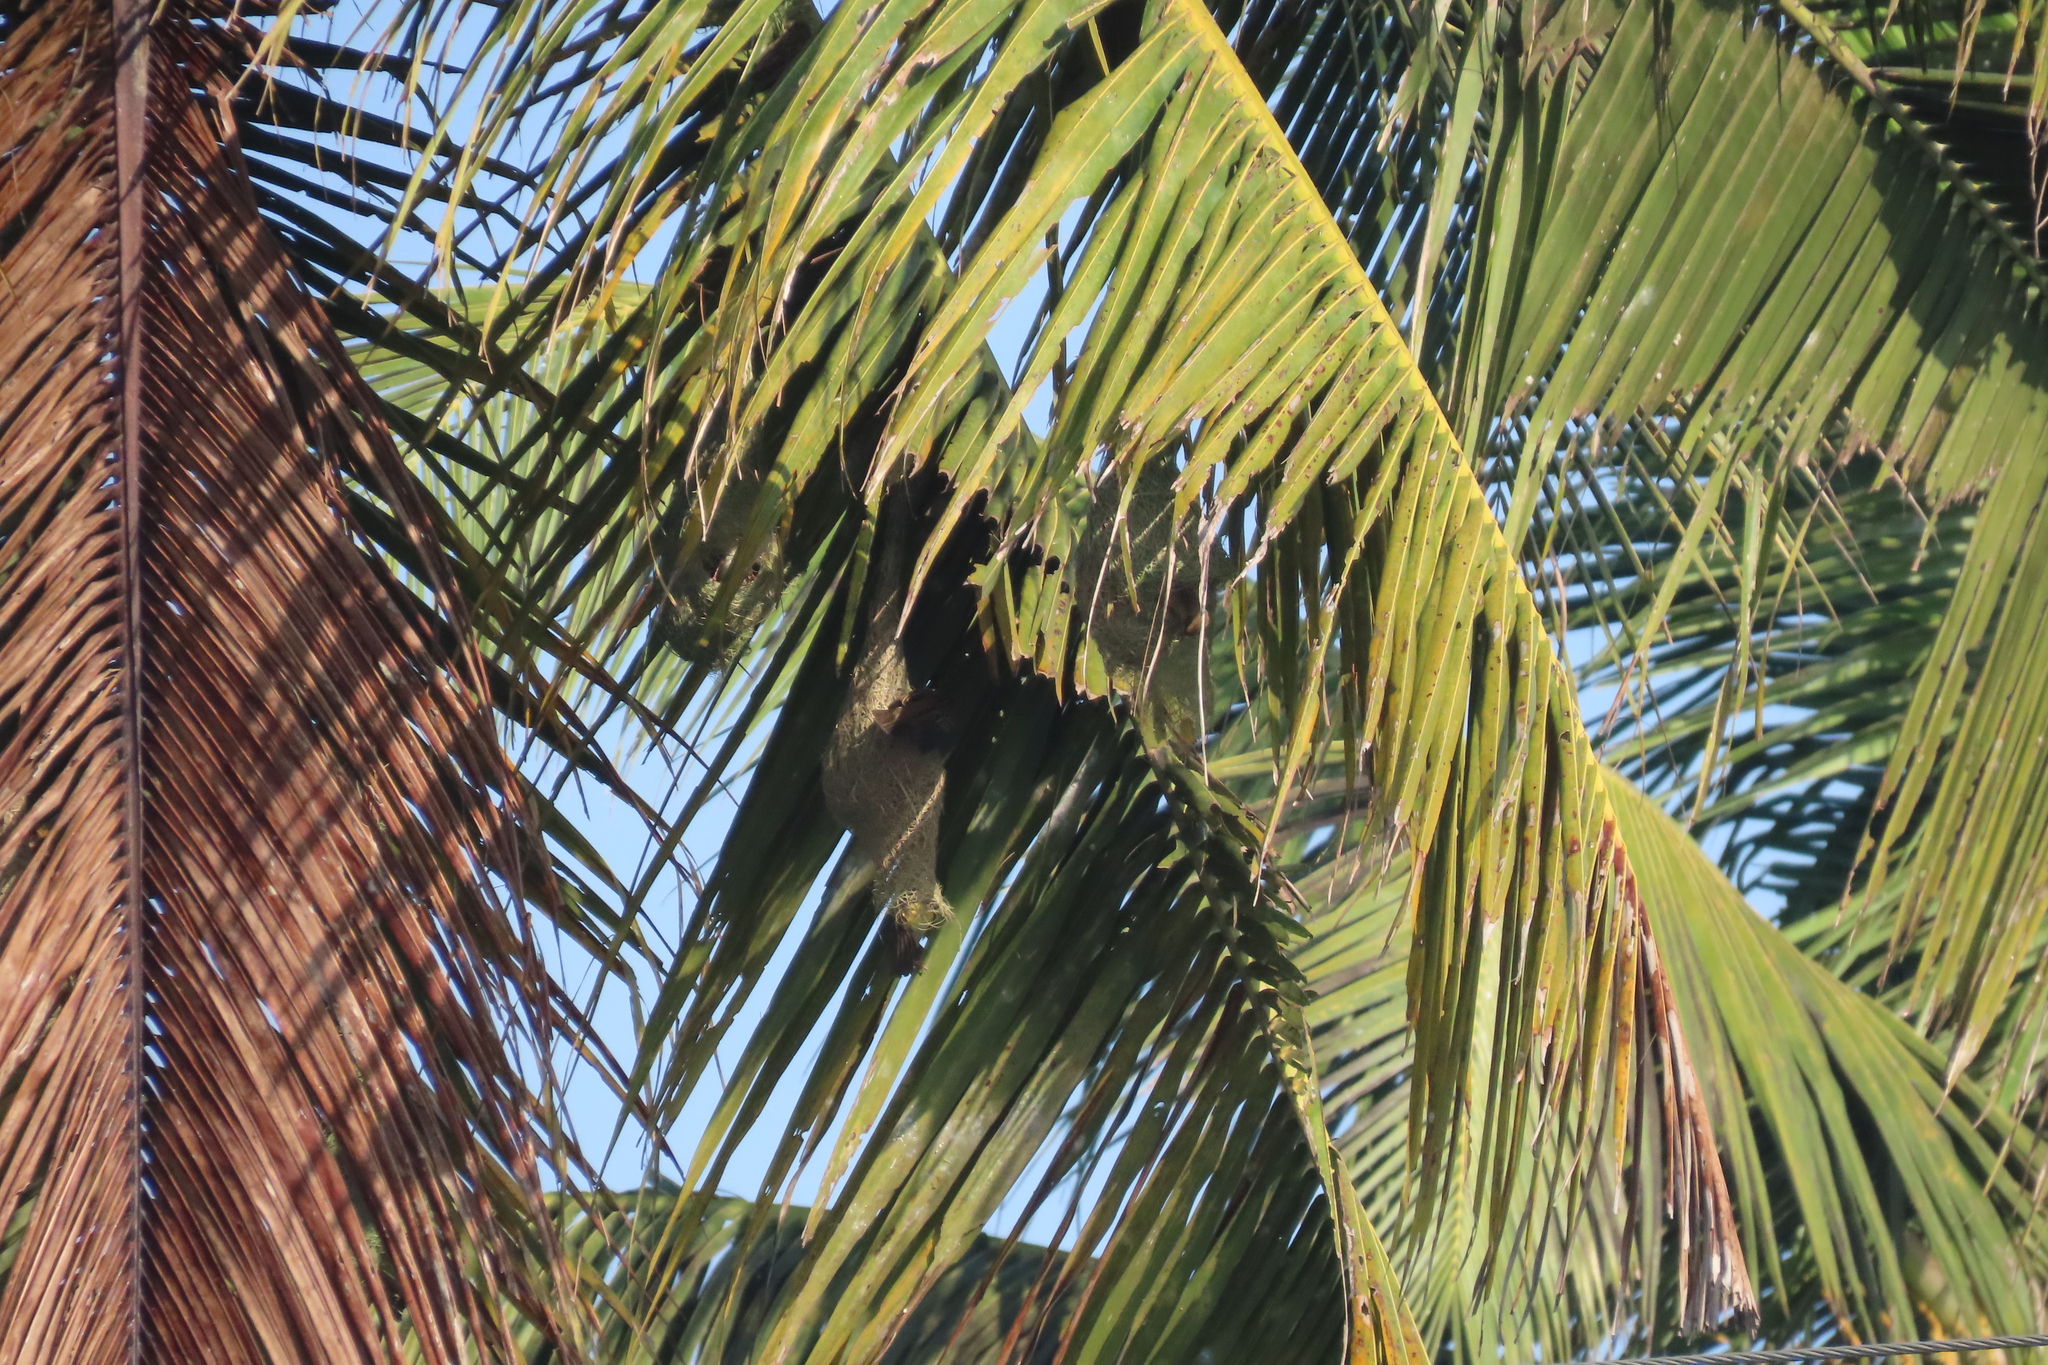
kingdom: Animalia
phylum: Chordata
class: Aves
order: Passeriformes
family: Ploceidae
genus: Ploceus
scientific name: Ploceus philippinus
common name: Baya weaver
